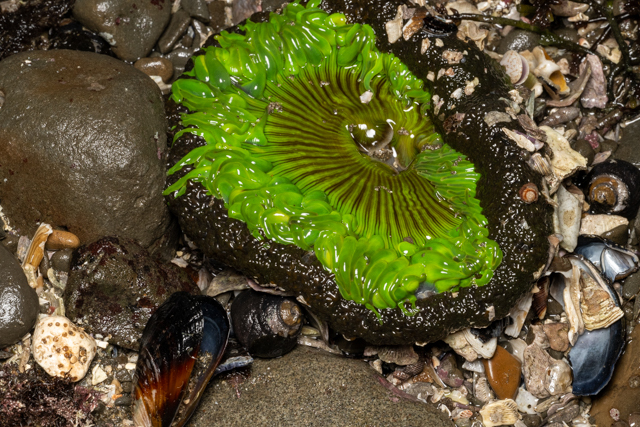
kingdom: Animalia
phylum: Cnidaria
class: Anthozoa
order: Actiniaria
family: Actiniidae
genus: Anthopleura
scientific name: Anthopleura sola
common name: Sun anemone
